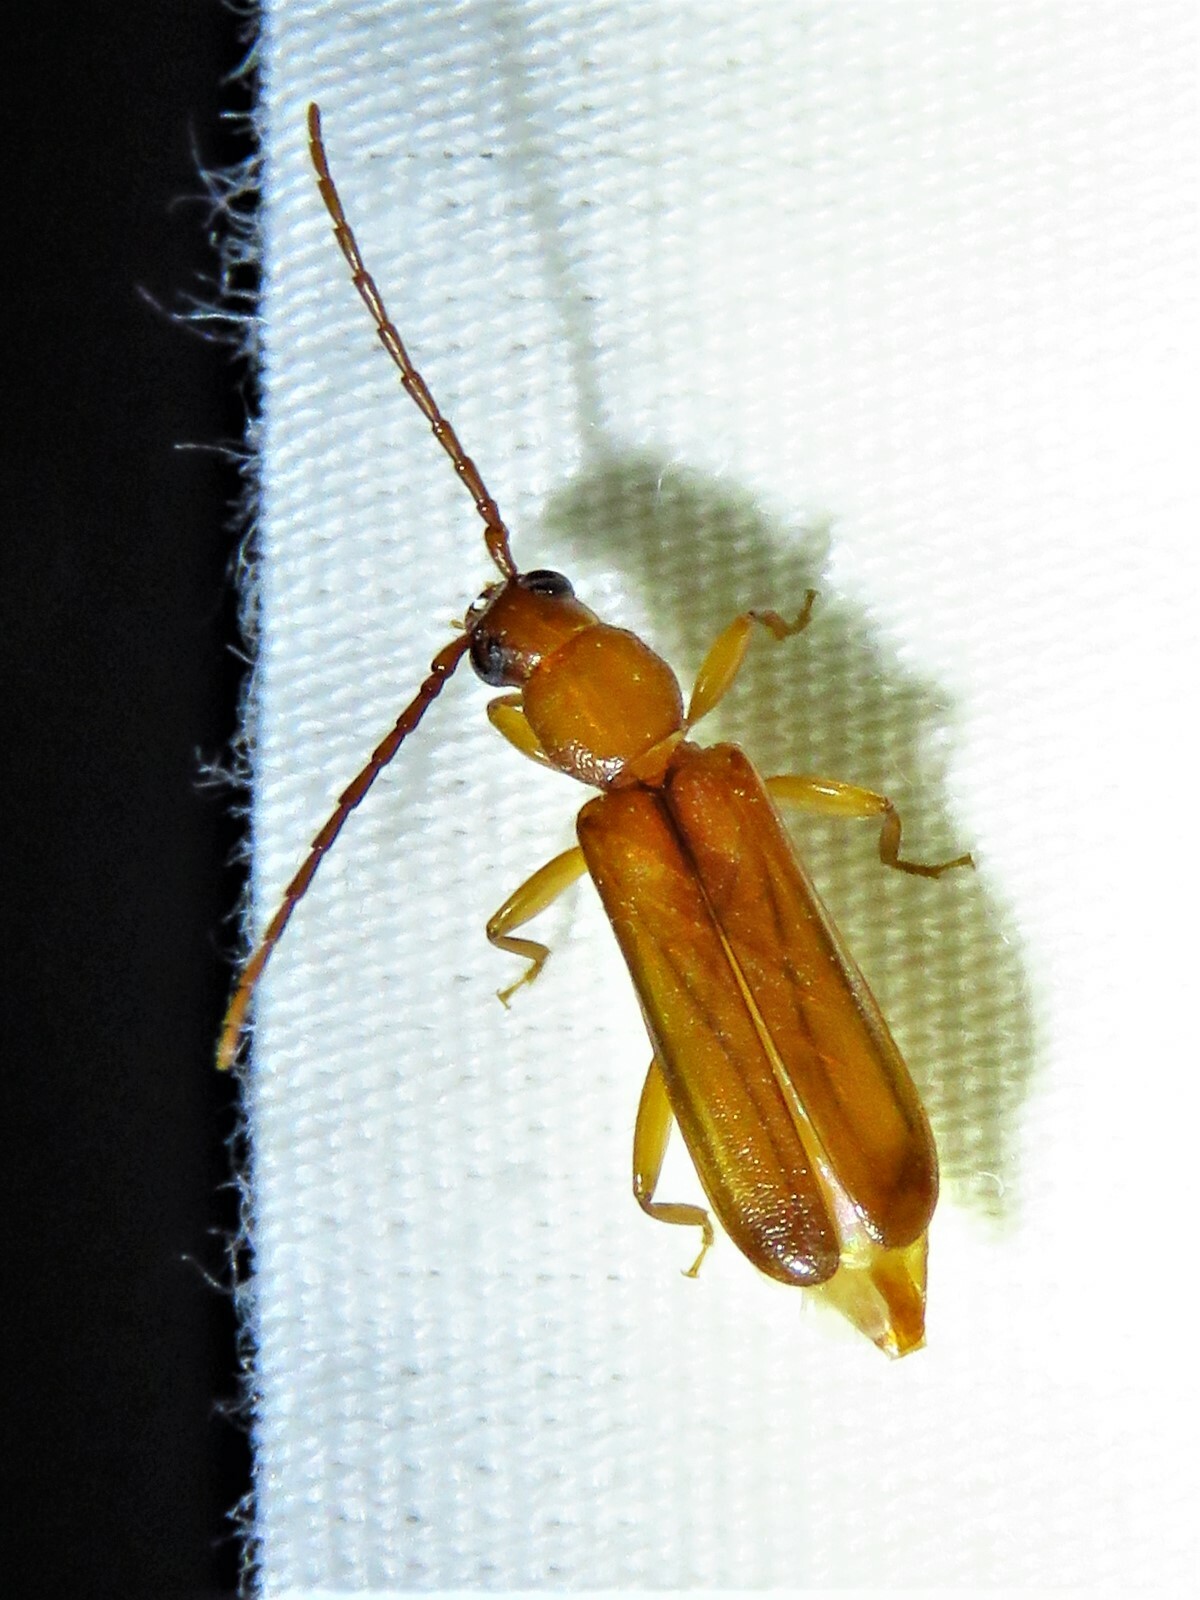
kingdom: Animalia
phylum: Arthropoda
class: Insecta
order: Coleoptera
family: Cerambycidae
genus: Smodicum
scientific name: Smodicum cucujiforme
